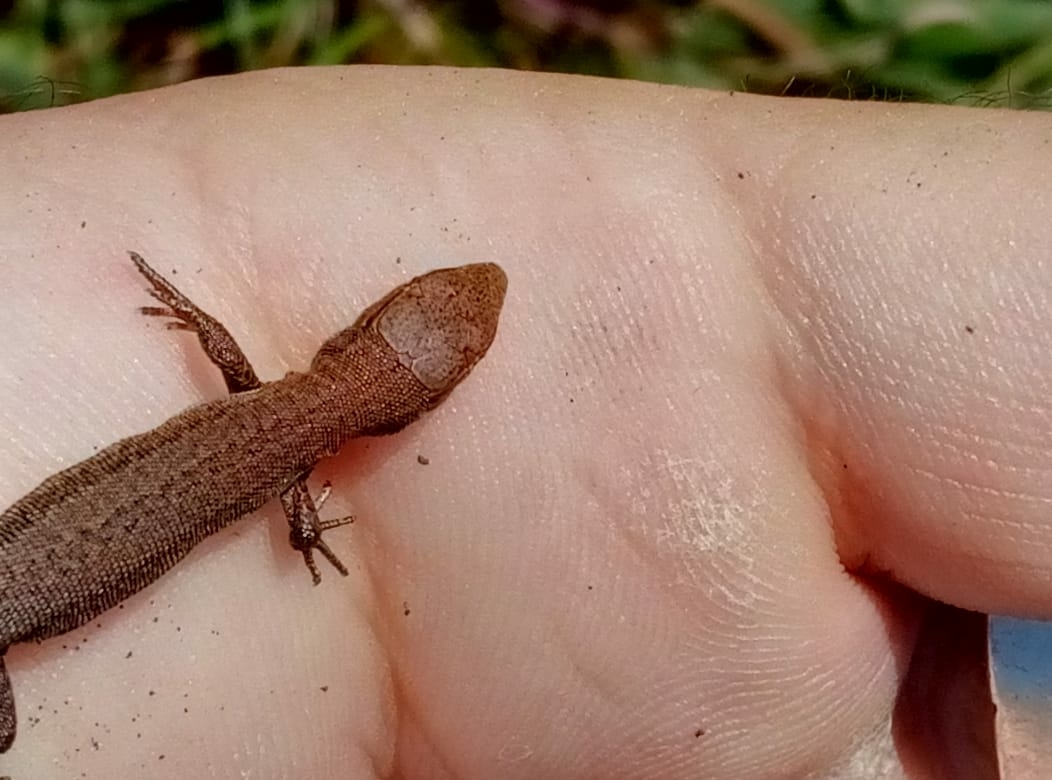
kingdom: Animalia
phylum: Chordata
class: Squamata
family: Lacertidae
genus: Darevskia
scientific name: Darevskia praticola
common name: Meadow lizard
